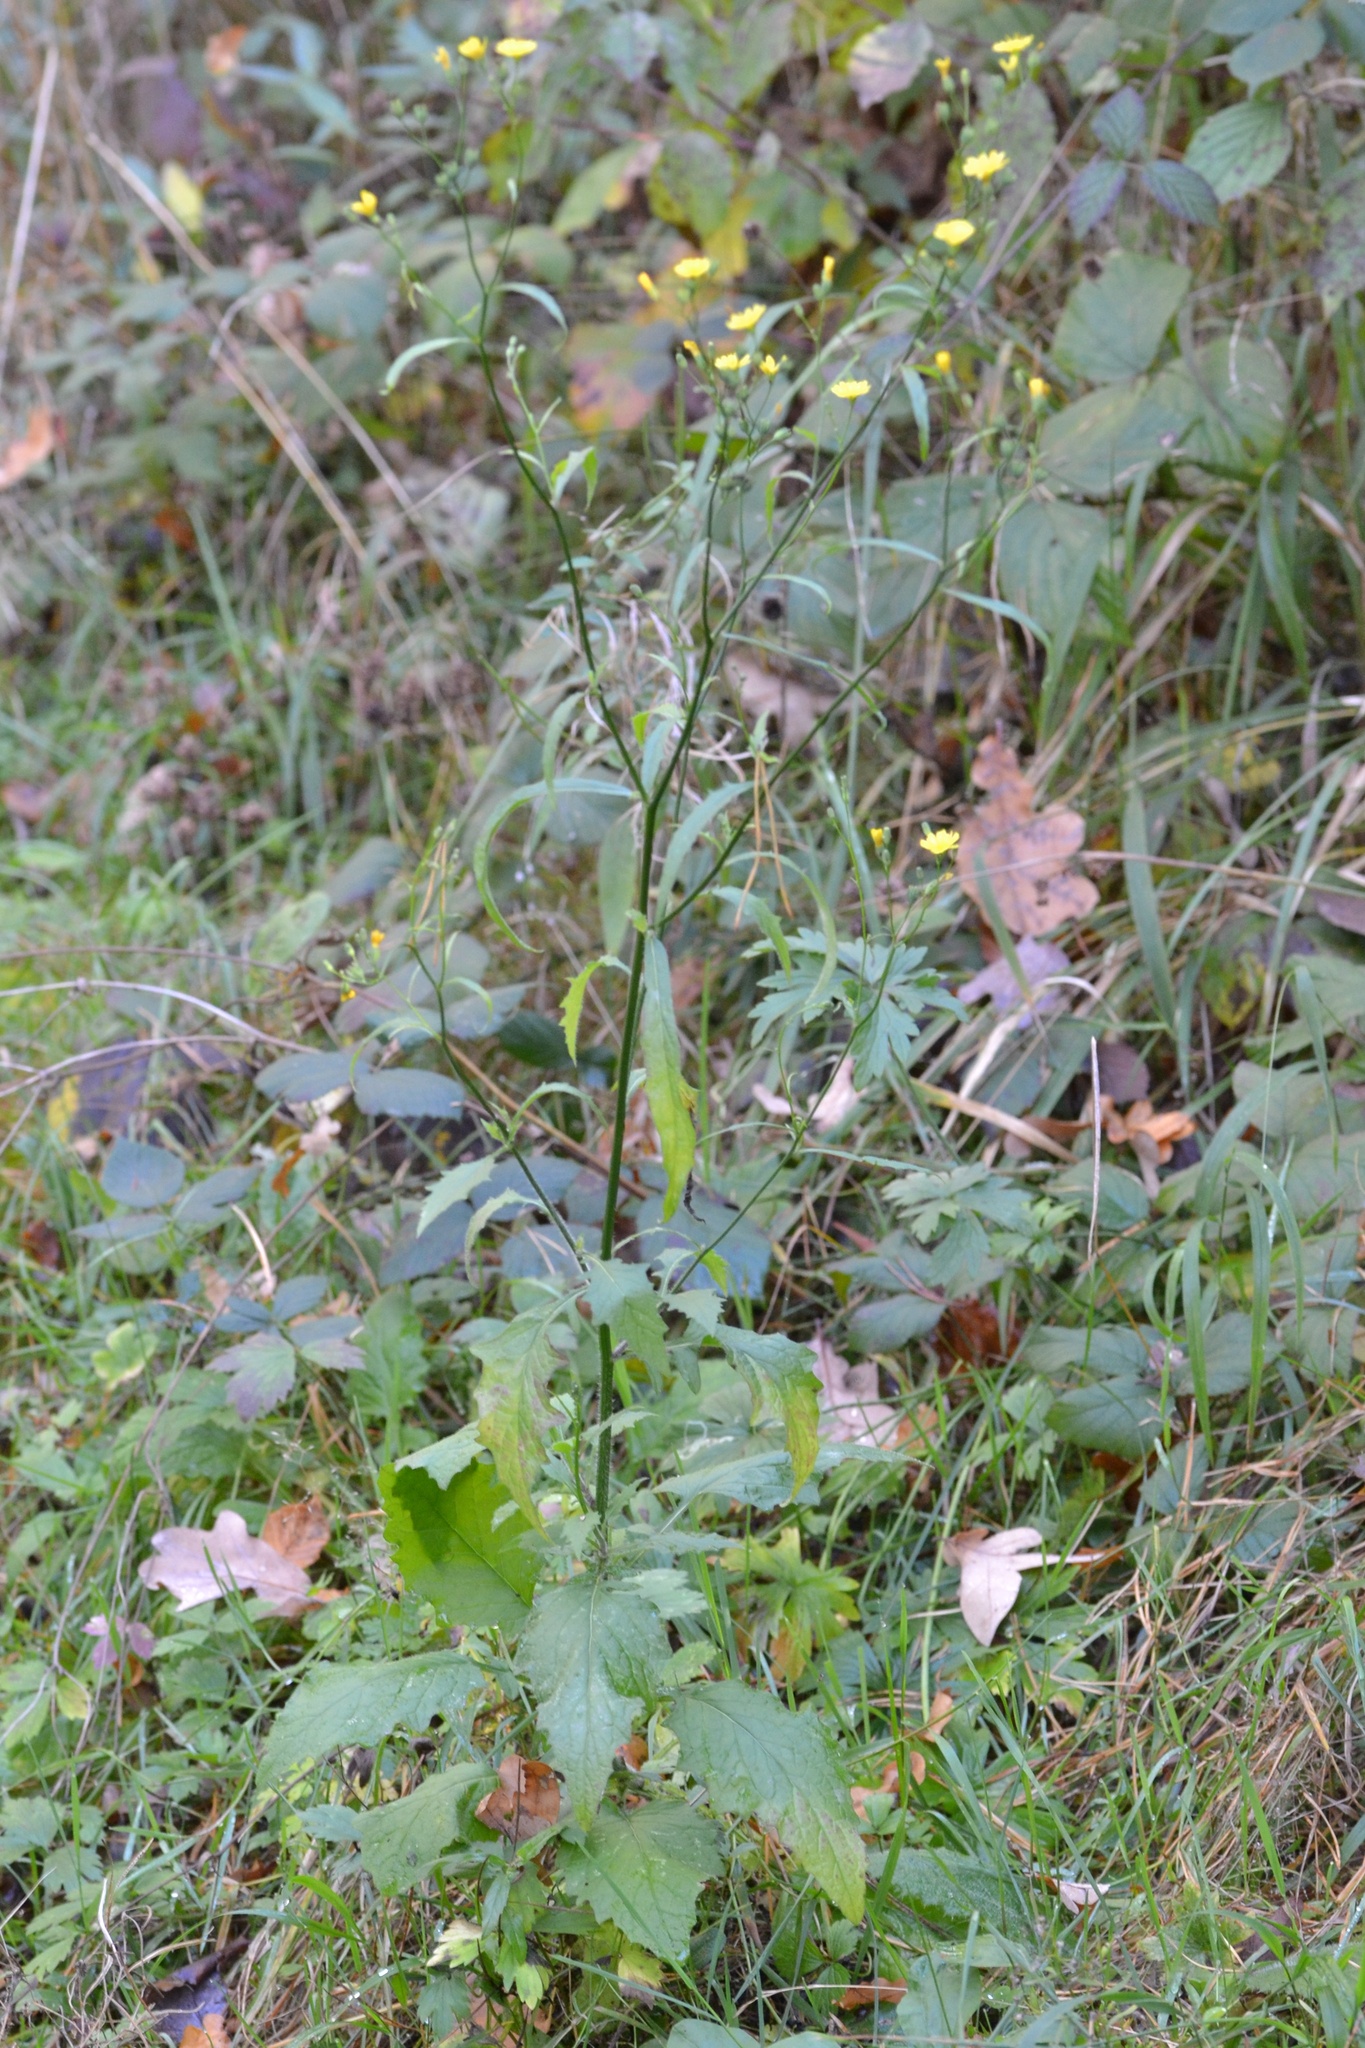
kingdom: Plantae
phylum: Tracheophyta
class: Magnoliopsida
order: Asterales
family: Asteraceae
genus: Lapsana
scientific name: Lapsana communis
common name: Nipplewort
